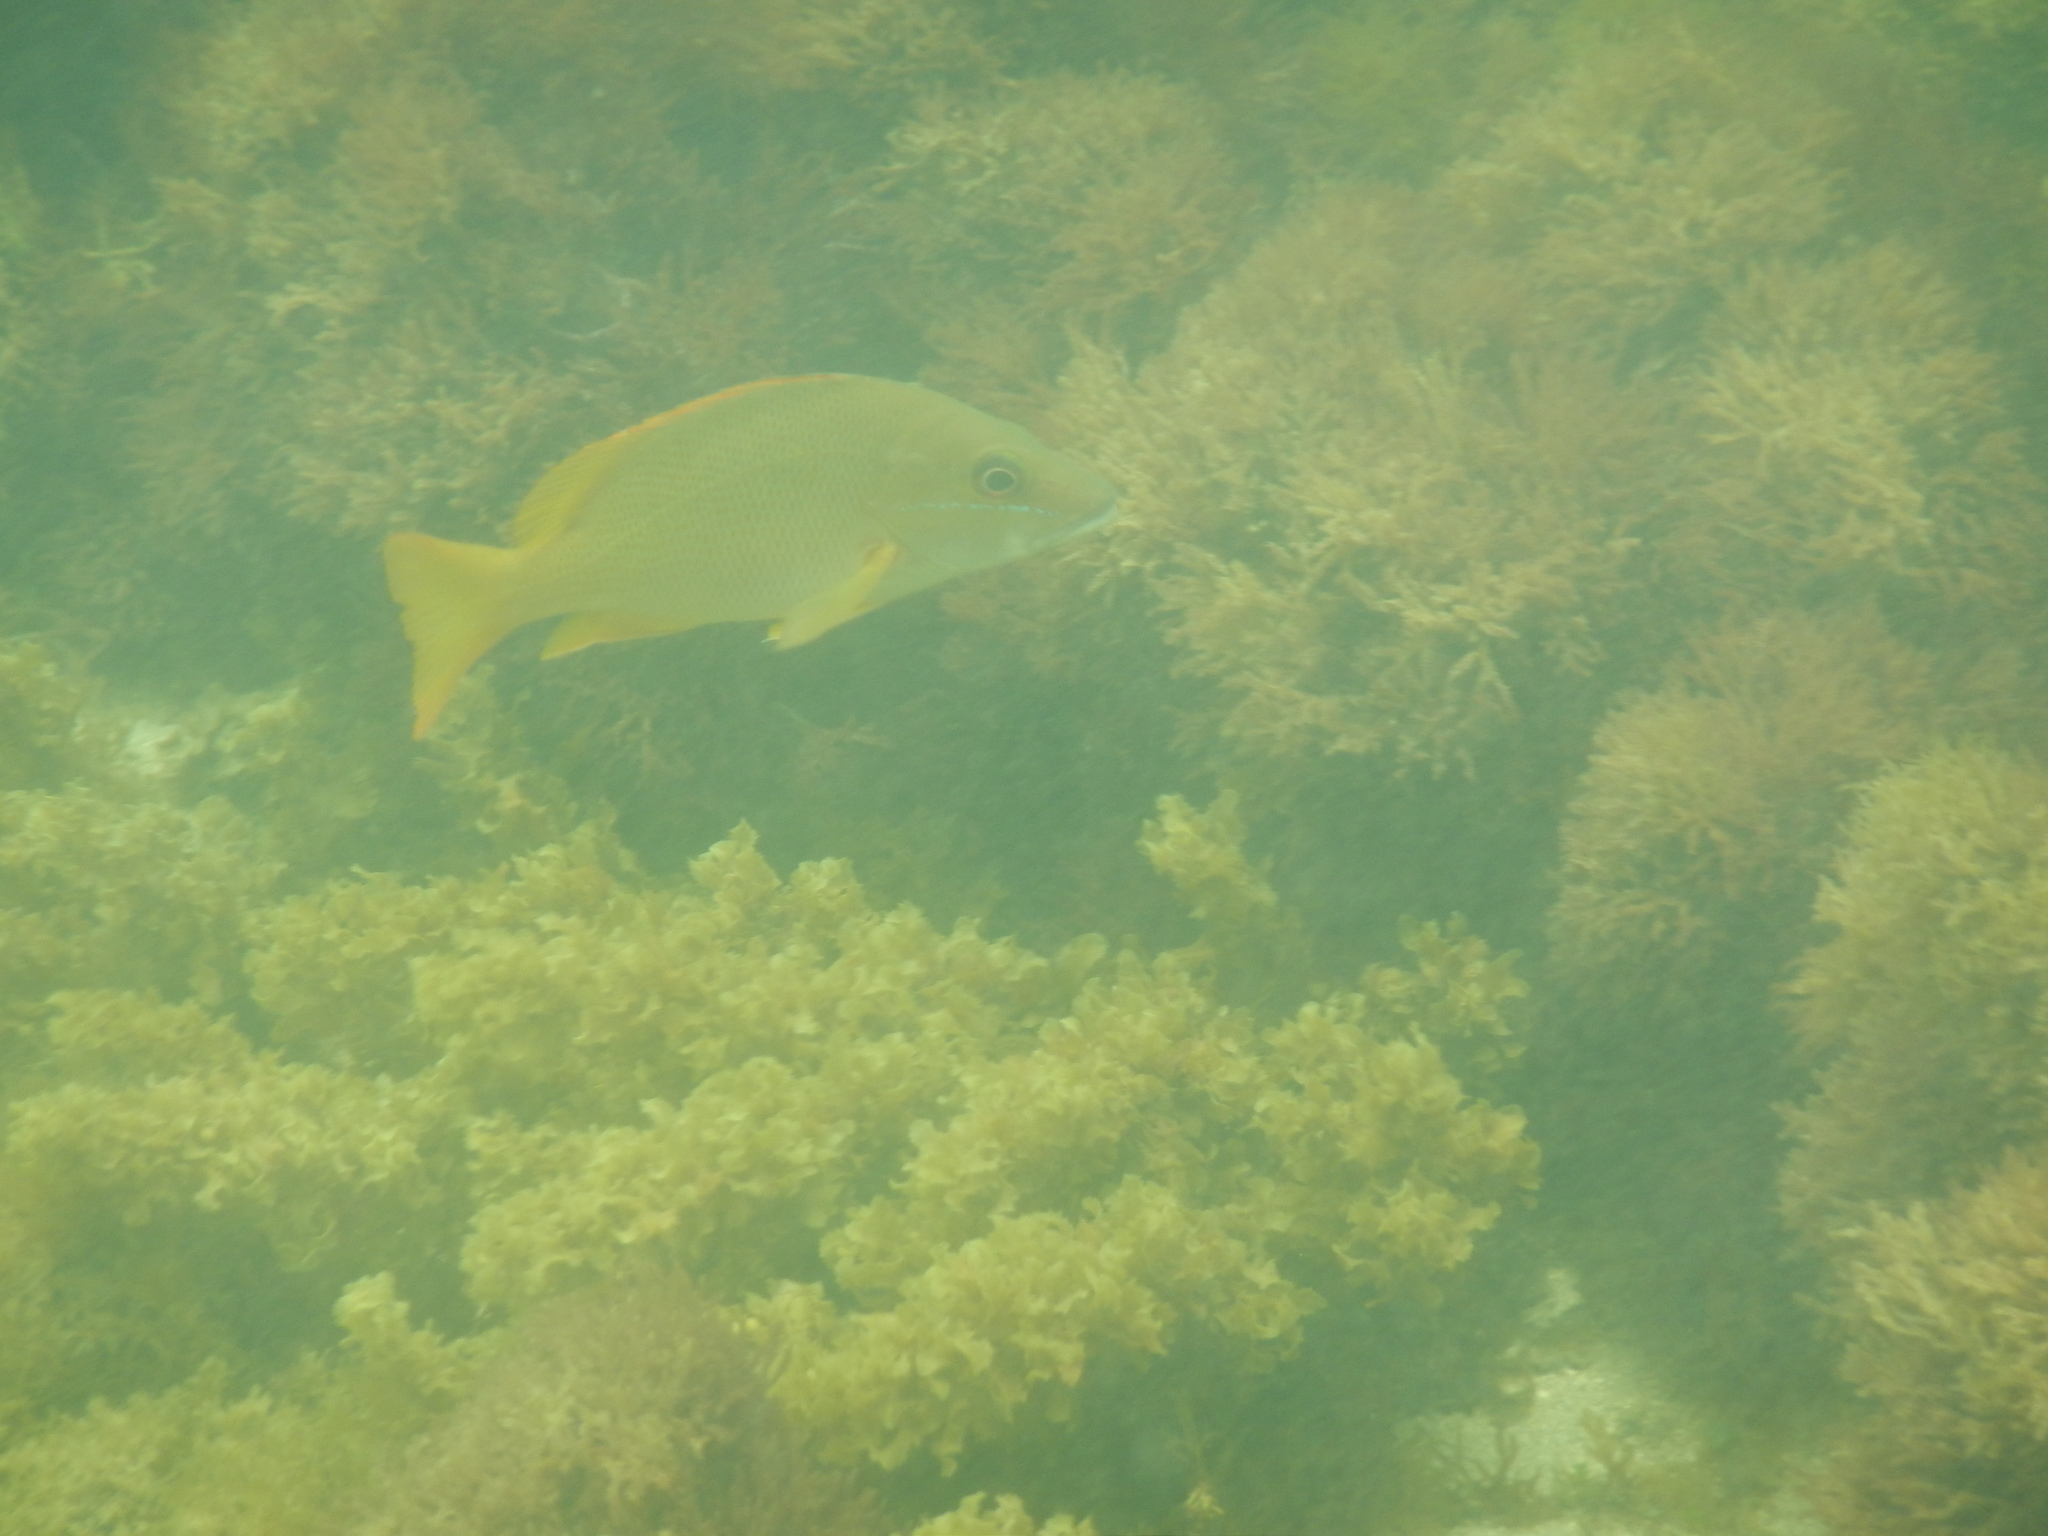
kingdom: Animalia
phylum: Chordata
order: Perciformes
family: Lutjanidae
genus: Lutjanus
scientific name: Lutjanus apodus
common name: Schoolmaster
